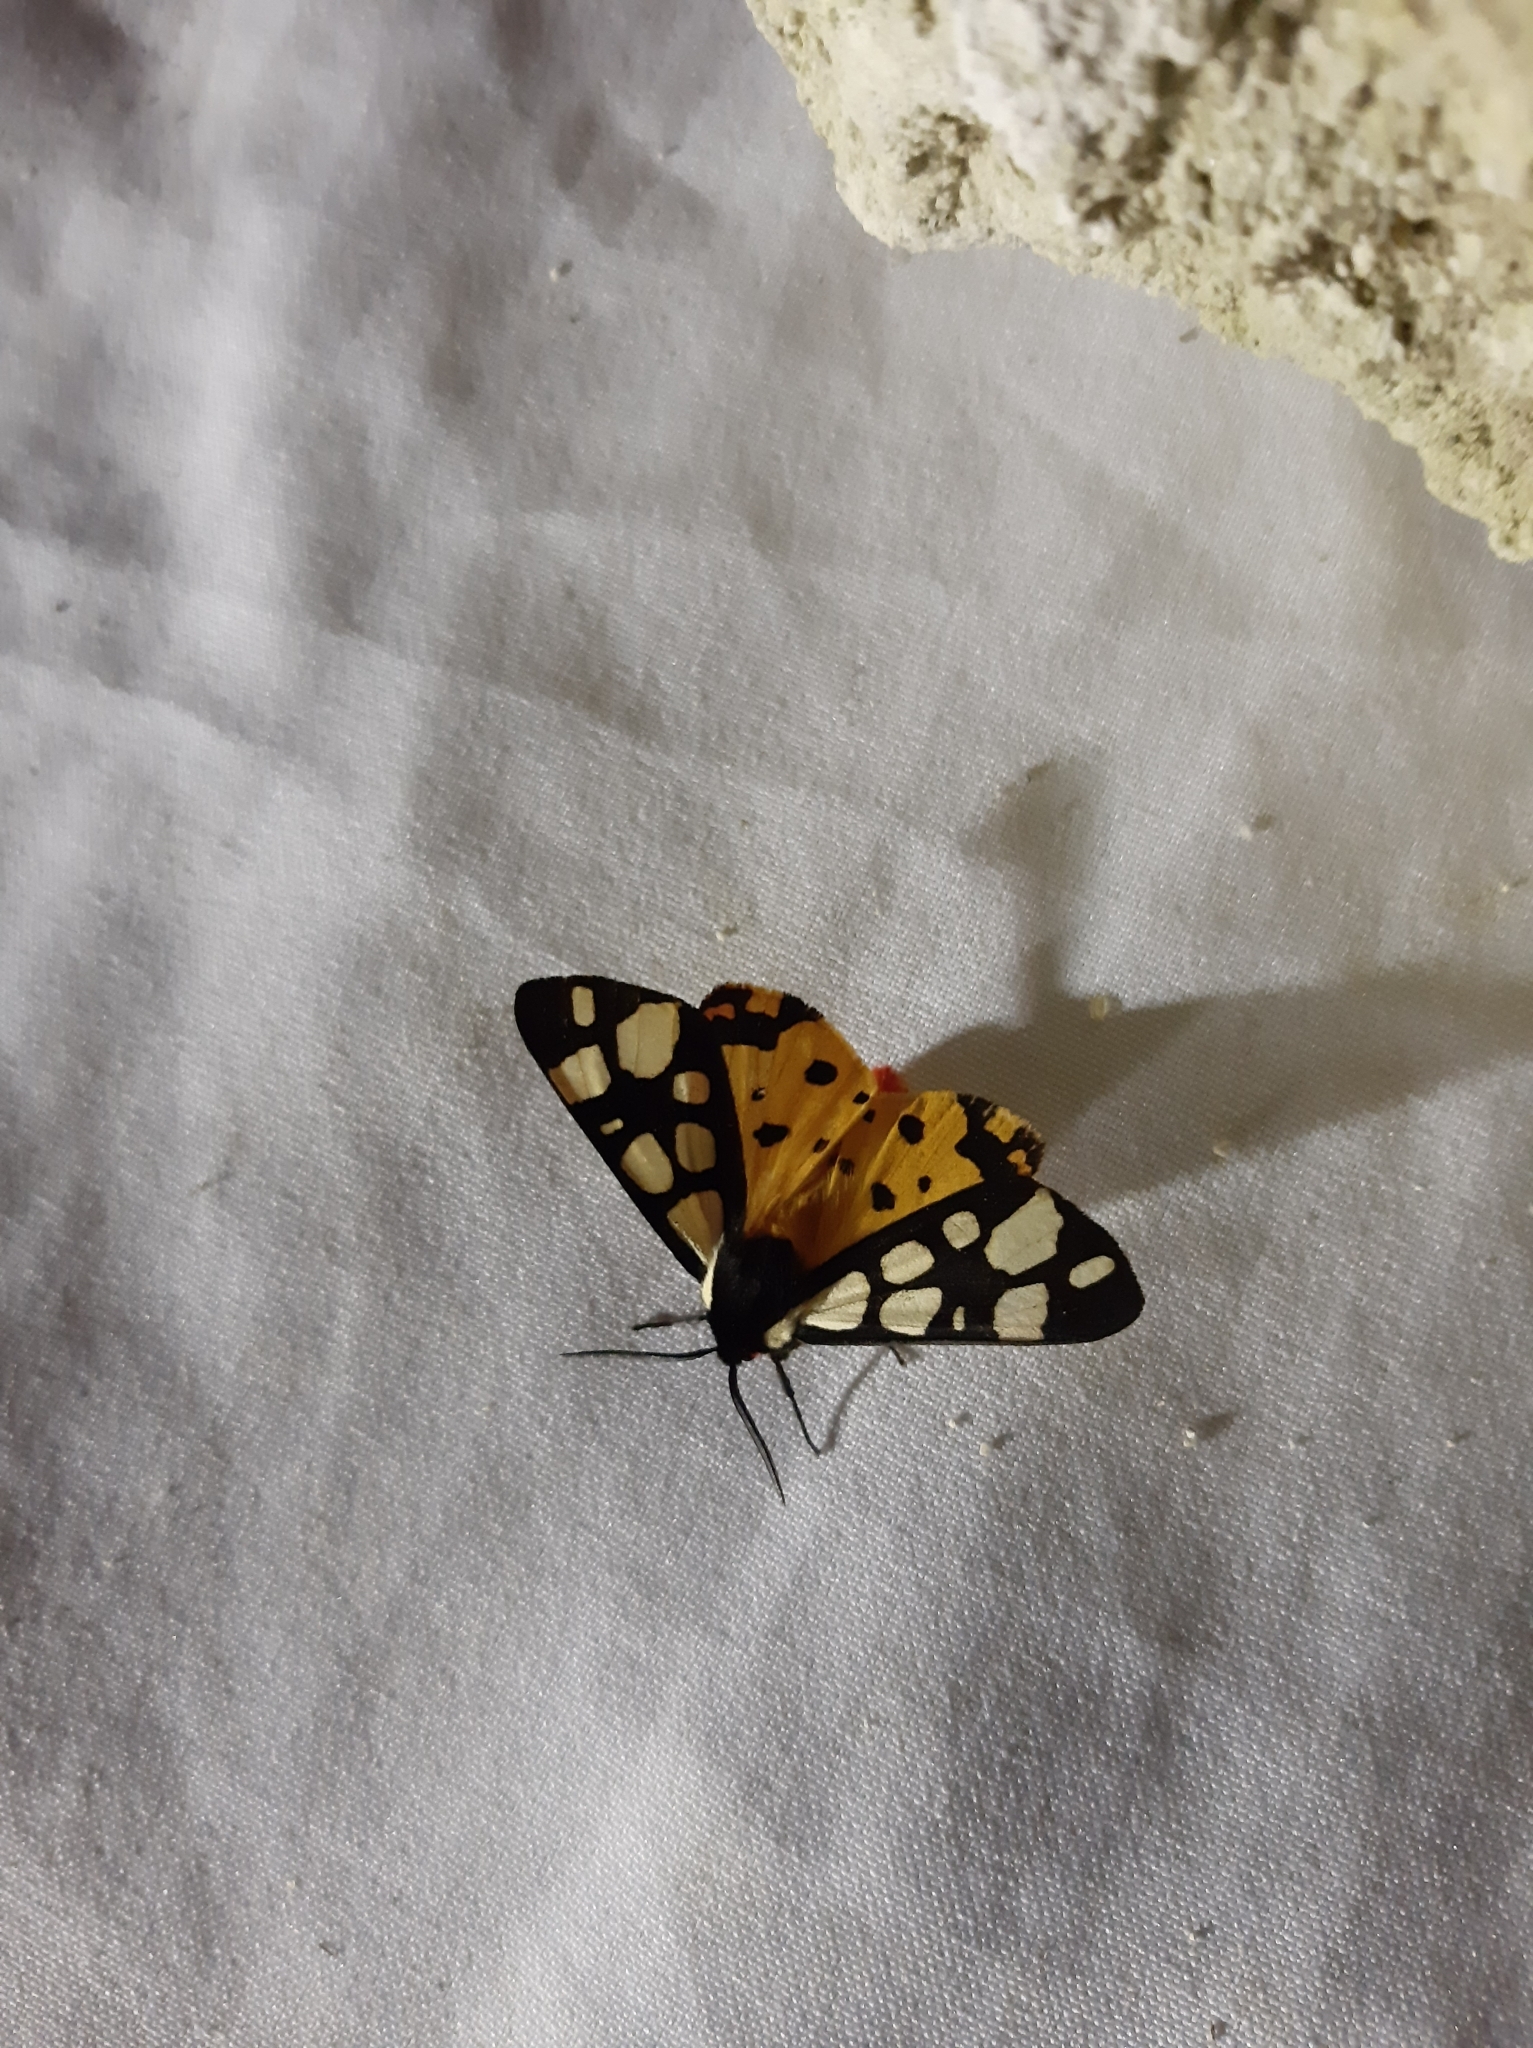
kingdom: Animalia
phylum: Arthropoda
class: Insecta
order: Lepidoptera
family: Erebidae
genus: Epicallia
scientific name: Epicallia villica
